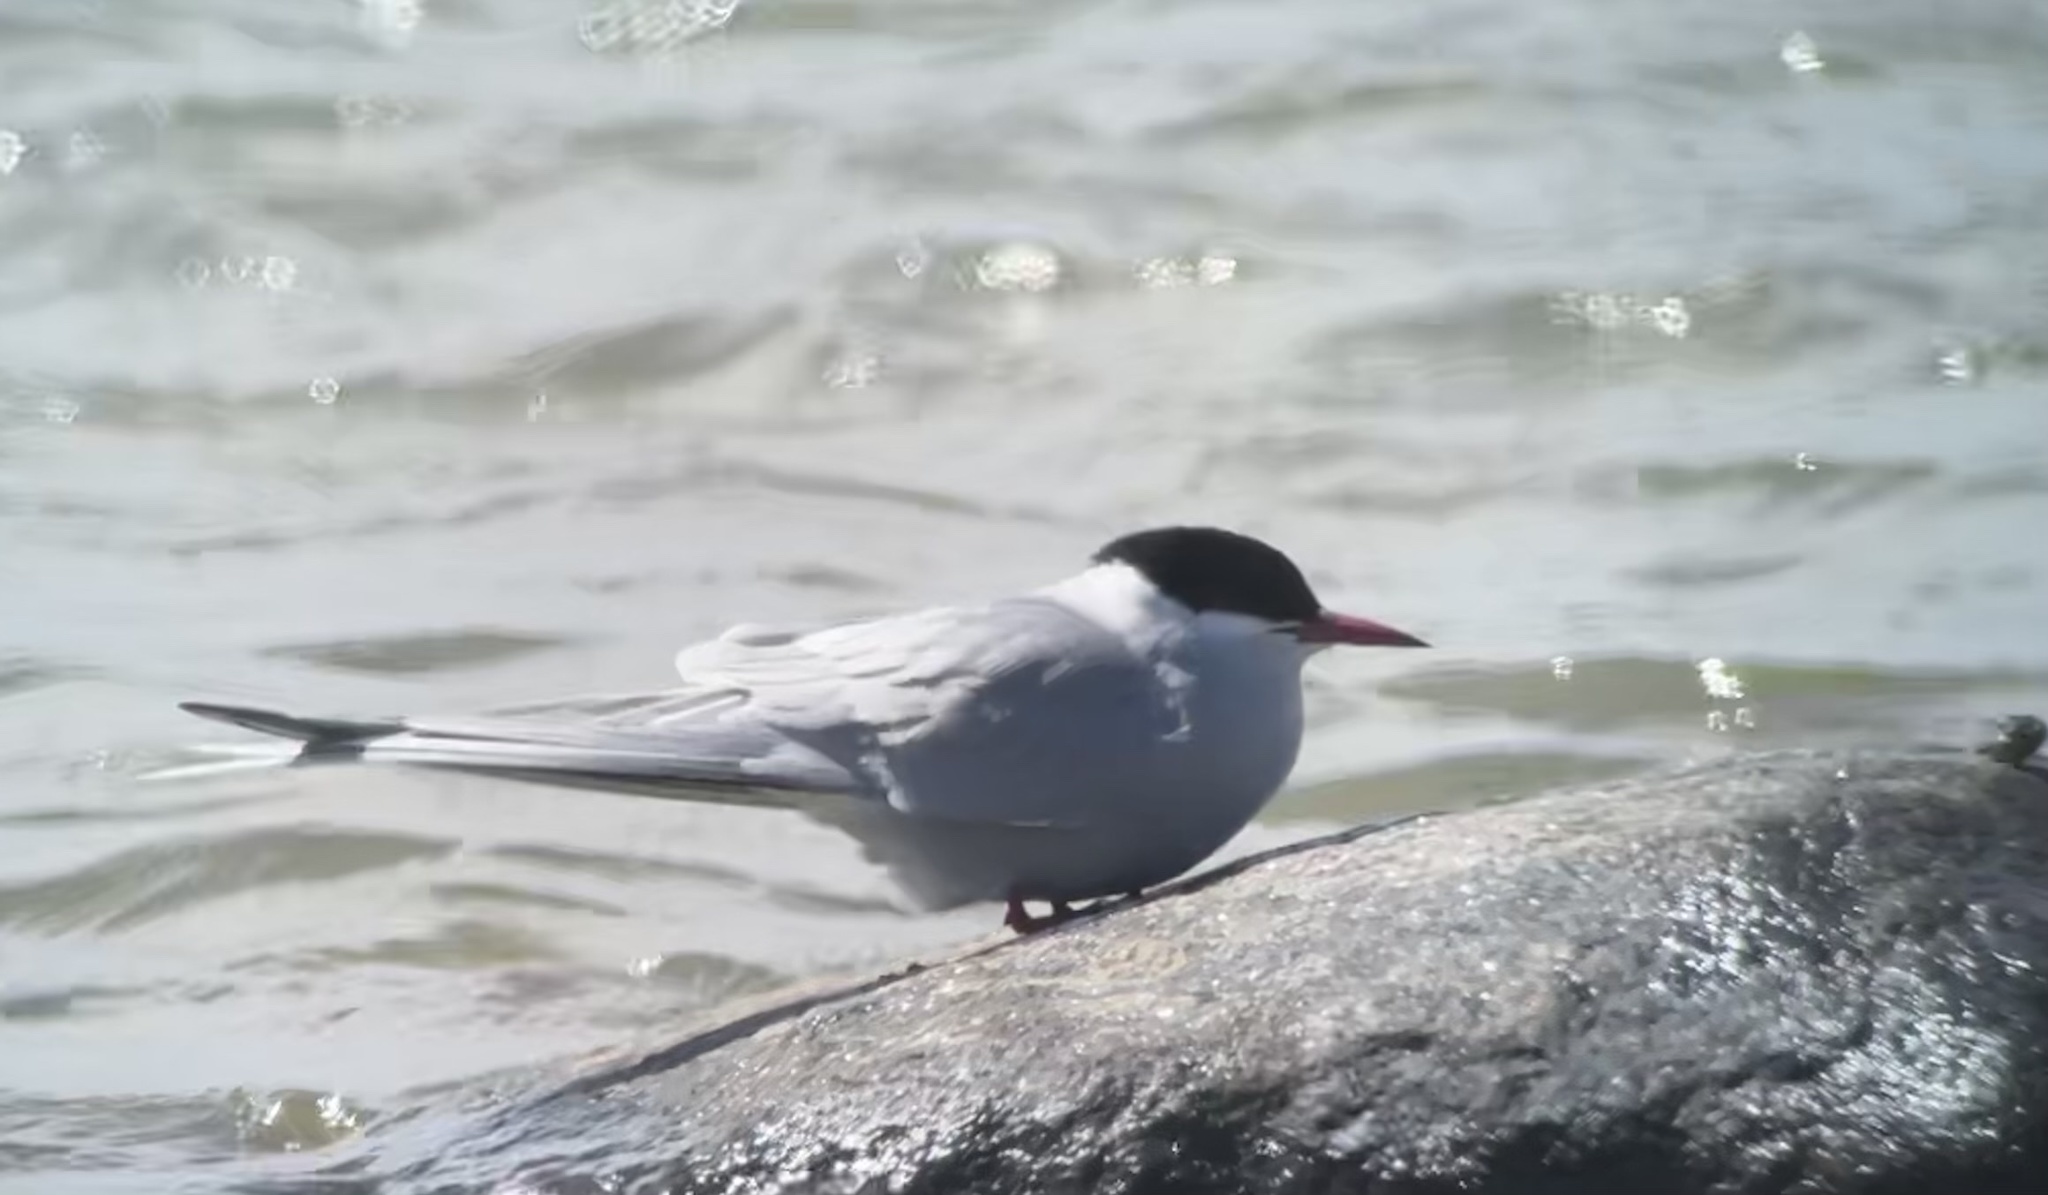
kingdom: Animalia
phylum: Chordata
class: Aves
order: Charadriiformes
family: Laridae
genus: Sterna
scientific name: Sterna paradisaea
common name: Arctic tern
